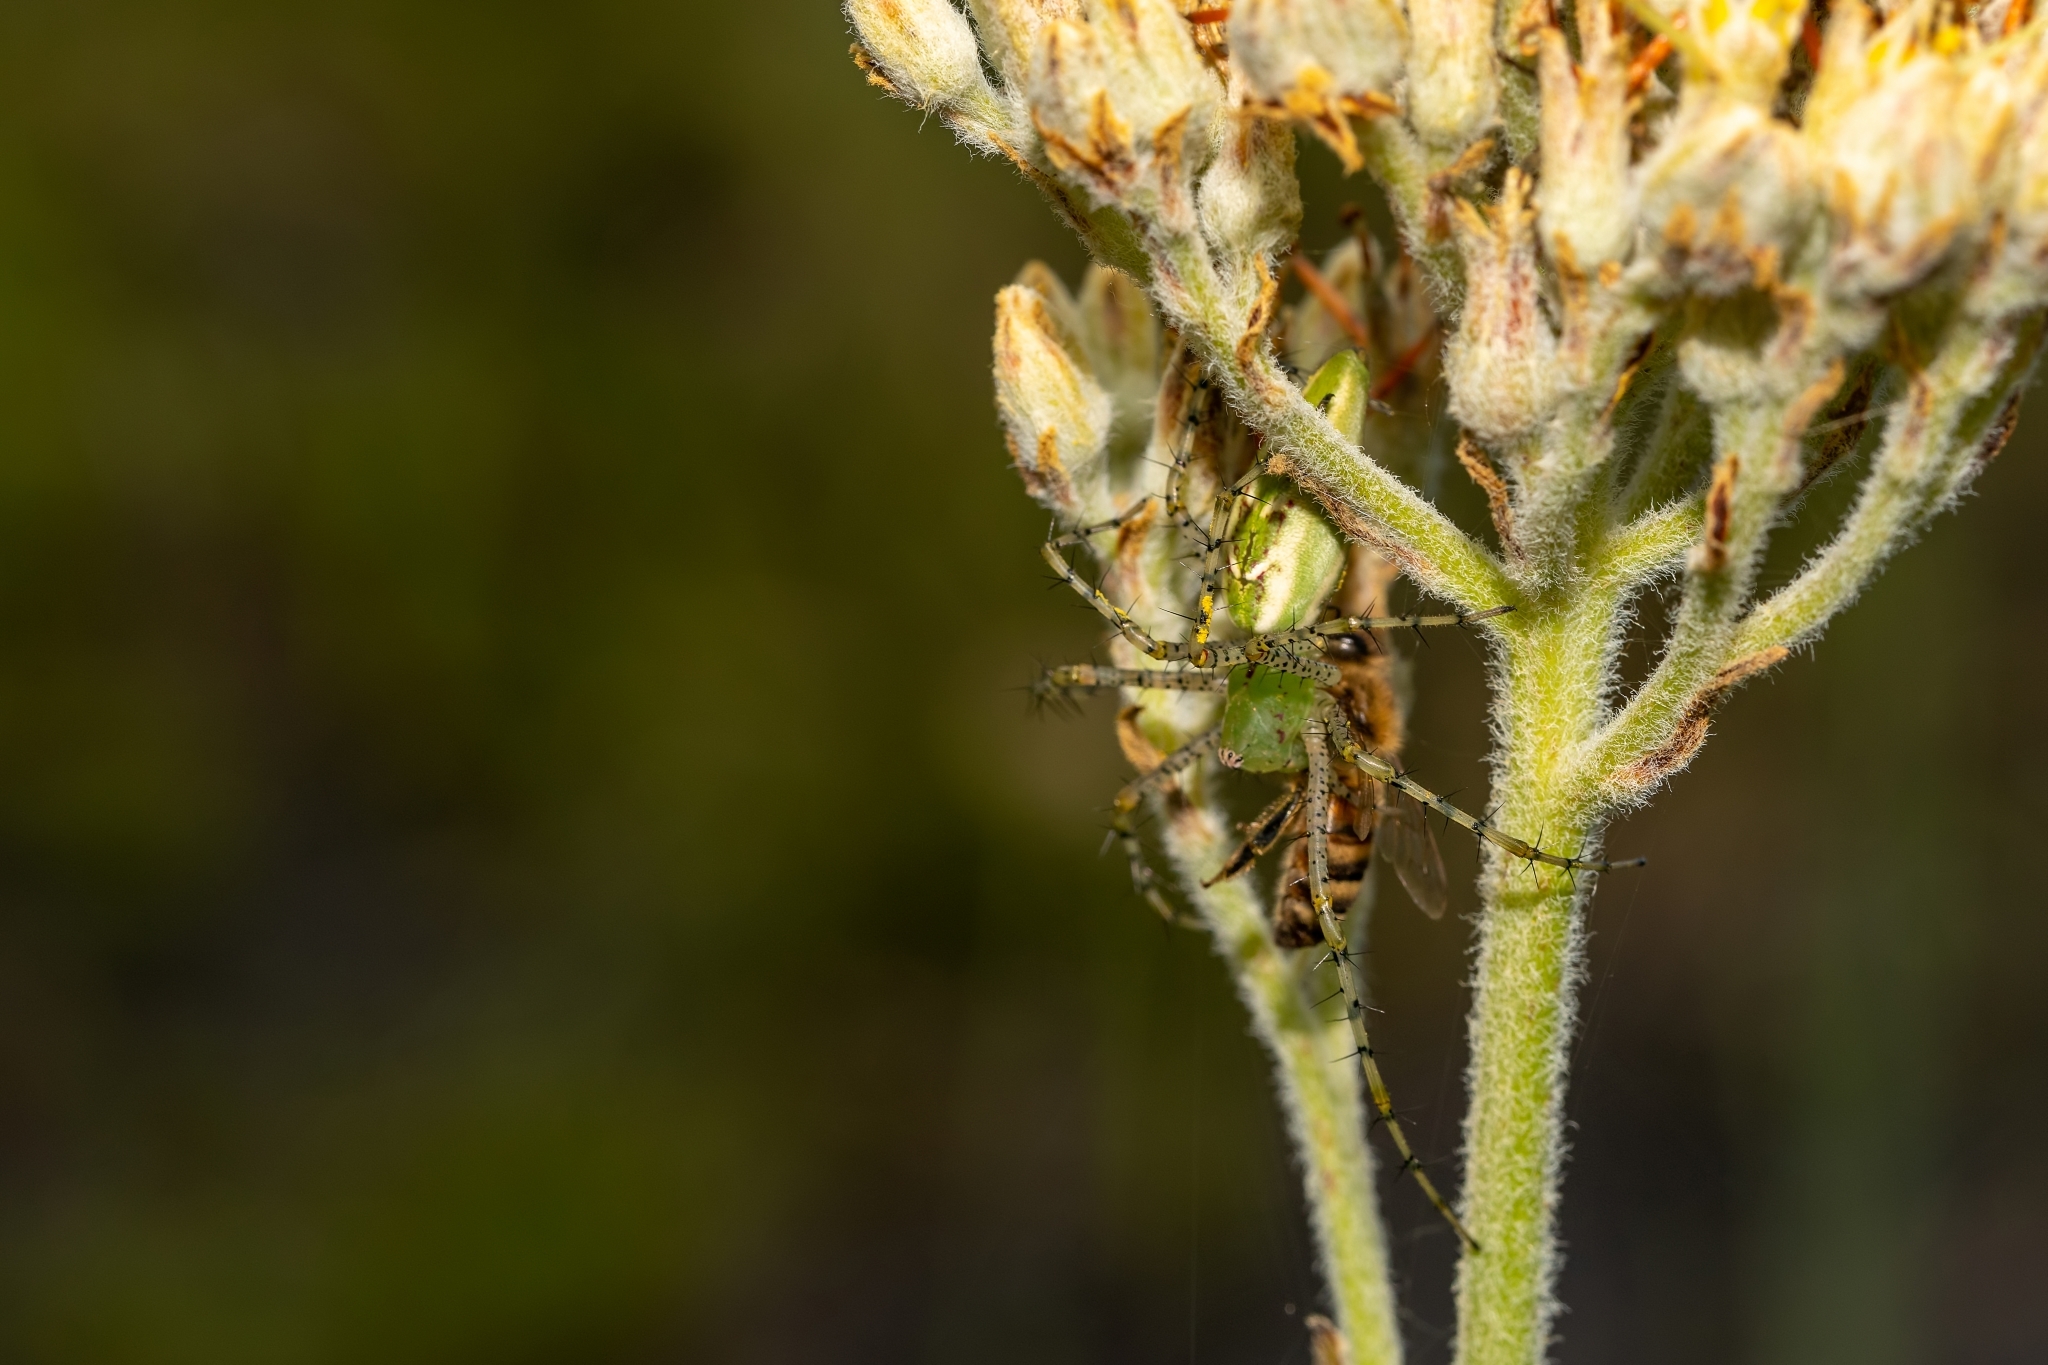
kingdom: Animalia
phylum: Arthropoda
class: Arachnida
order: Araneae
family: Oxyopidae
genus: Peucetia
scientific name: Peucetia viridans
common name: Lynx spiders
